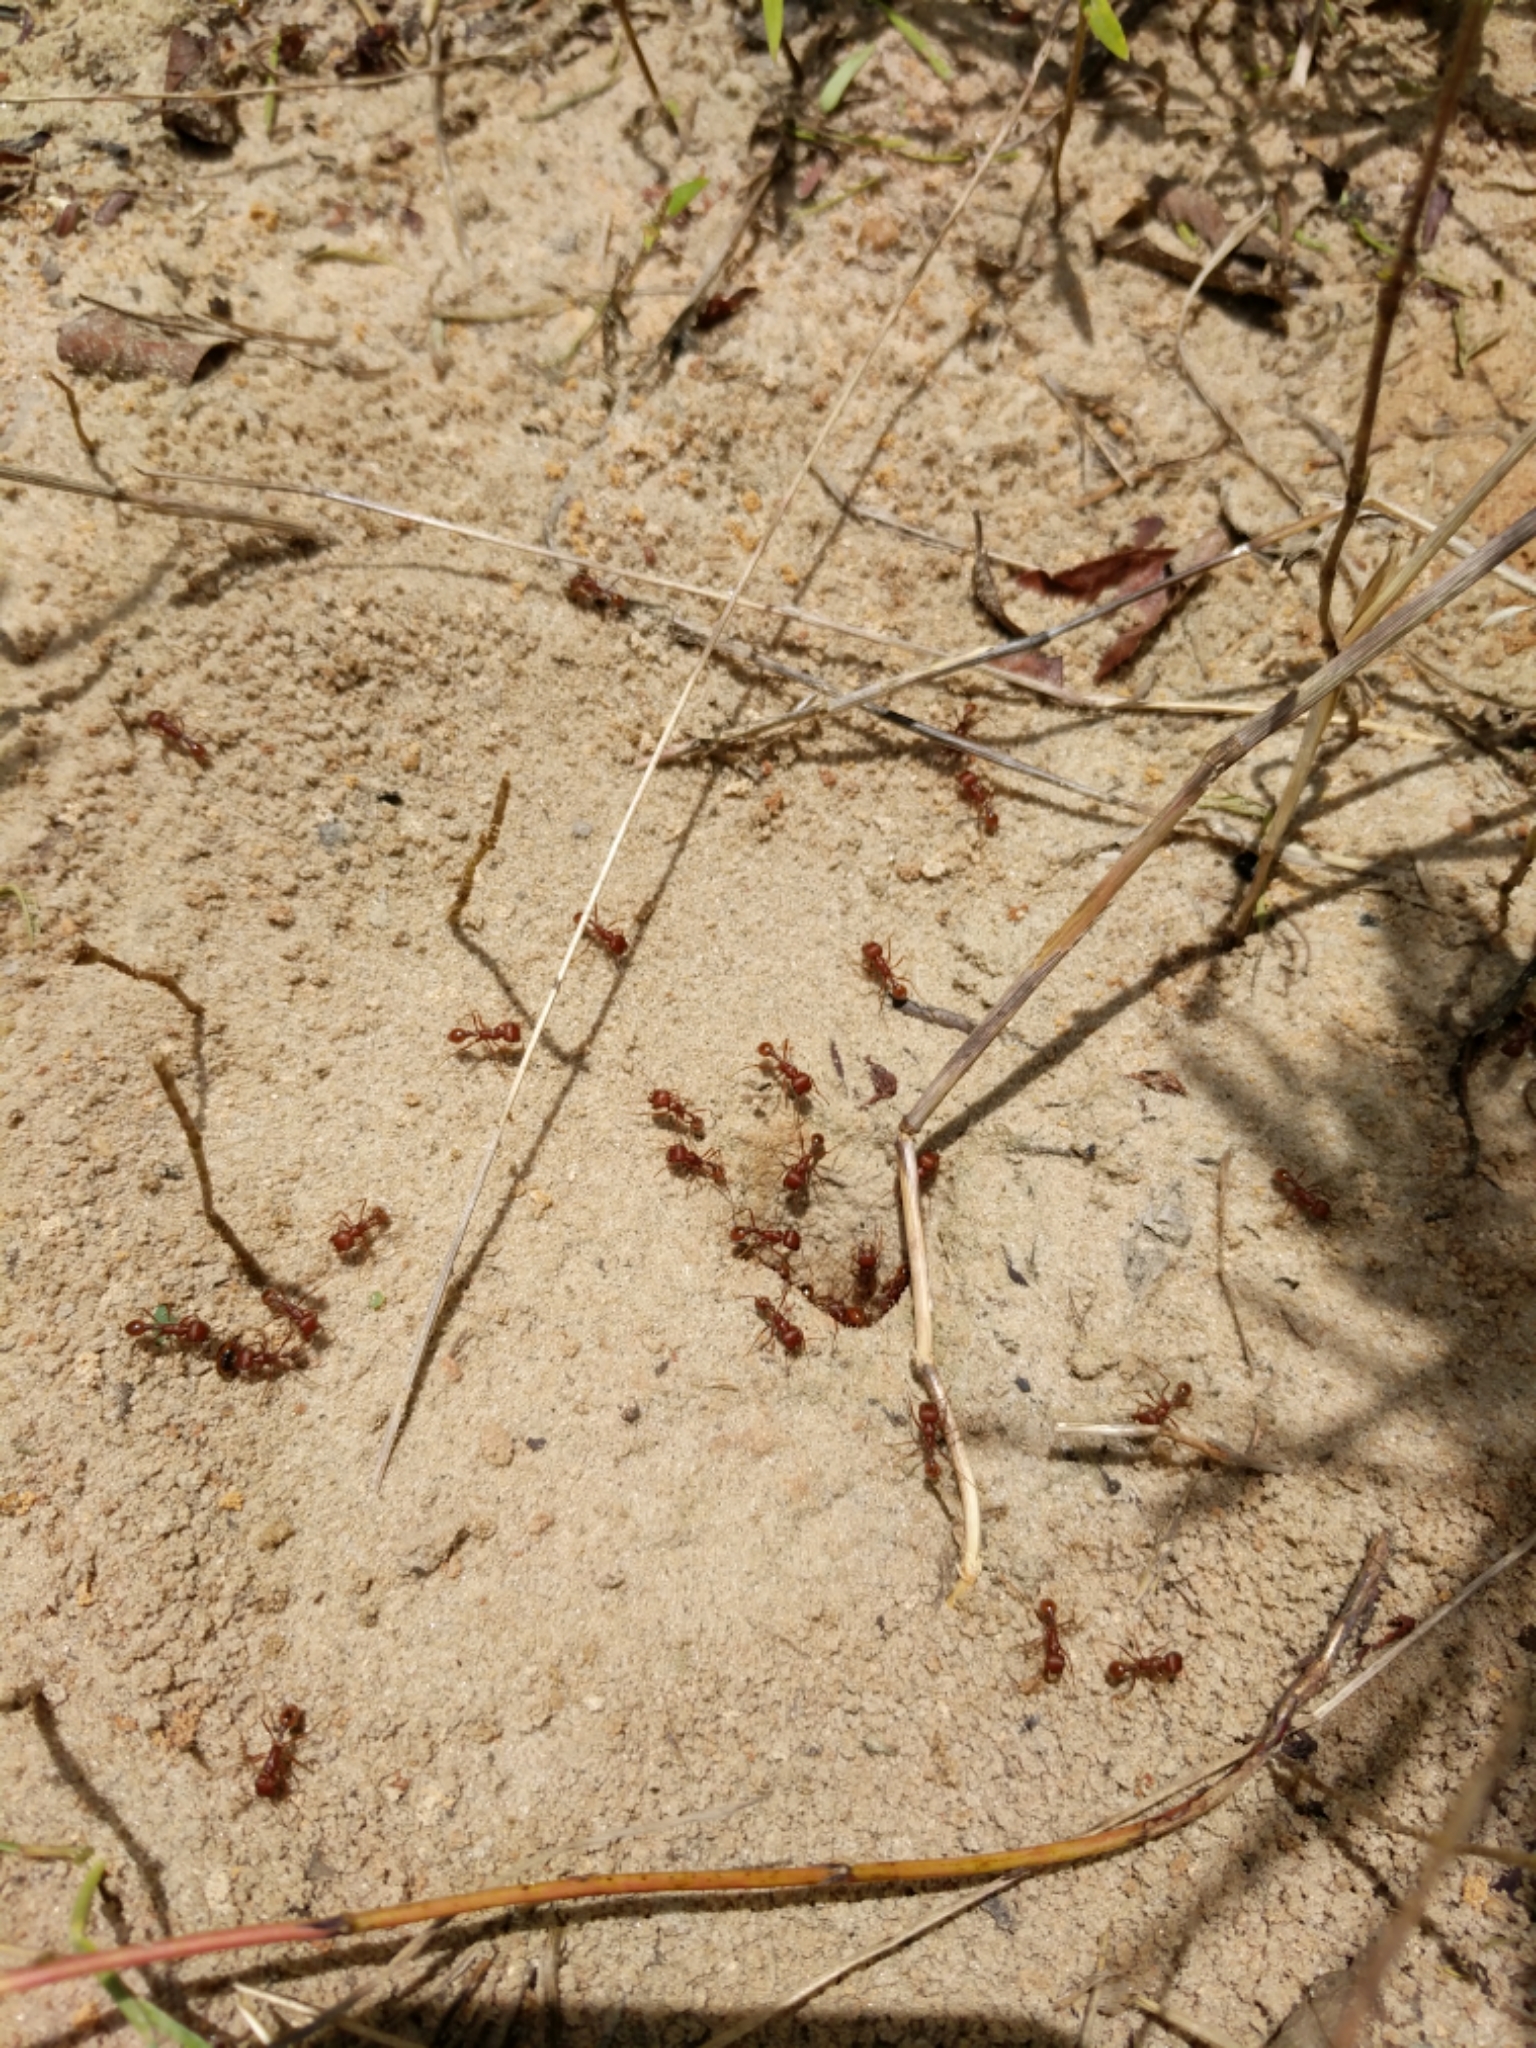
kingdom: Animalia
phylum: Arthropoda
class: Insecta
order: Hymenoptera
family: Formicidae
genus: Pogonomyrmex
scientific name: Pogonomyrmex barbatus
